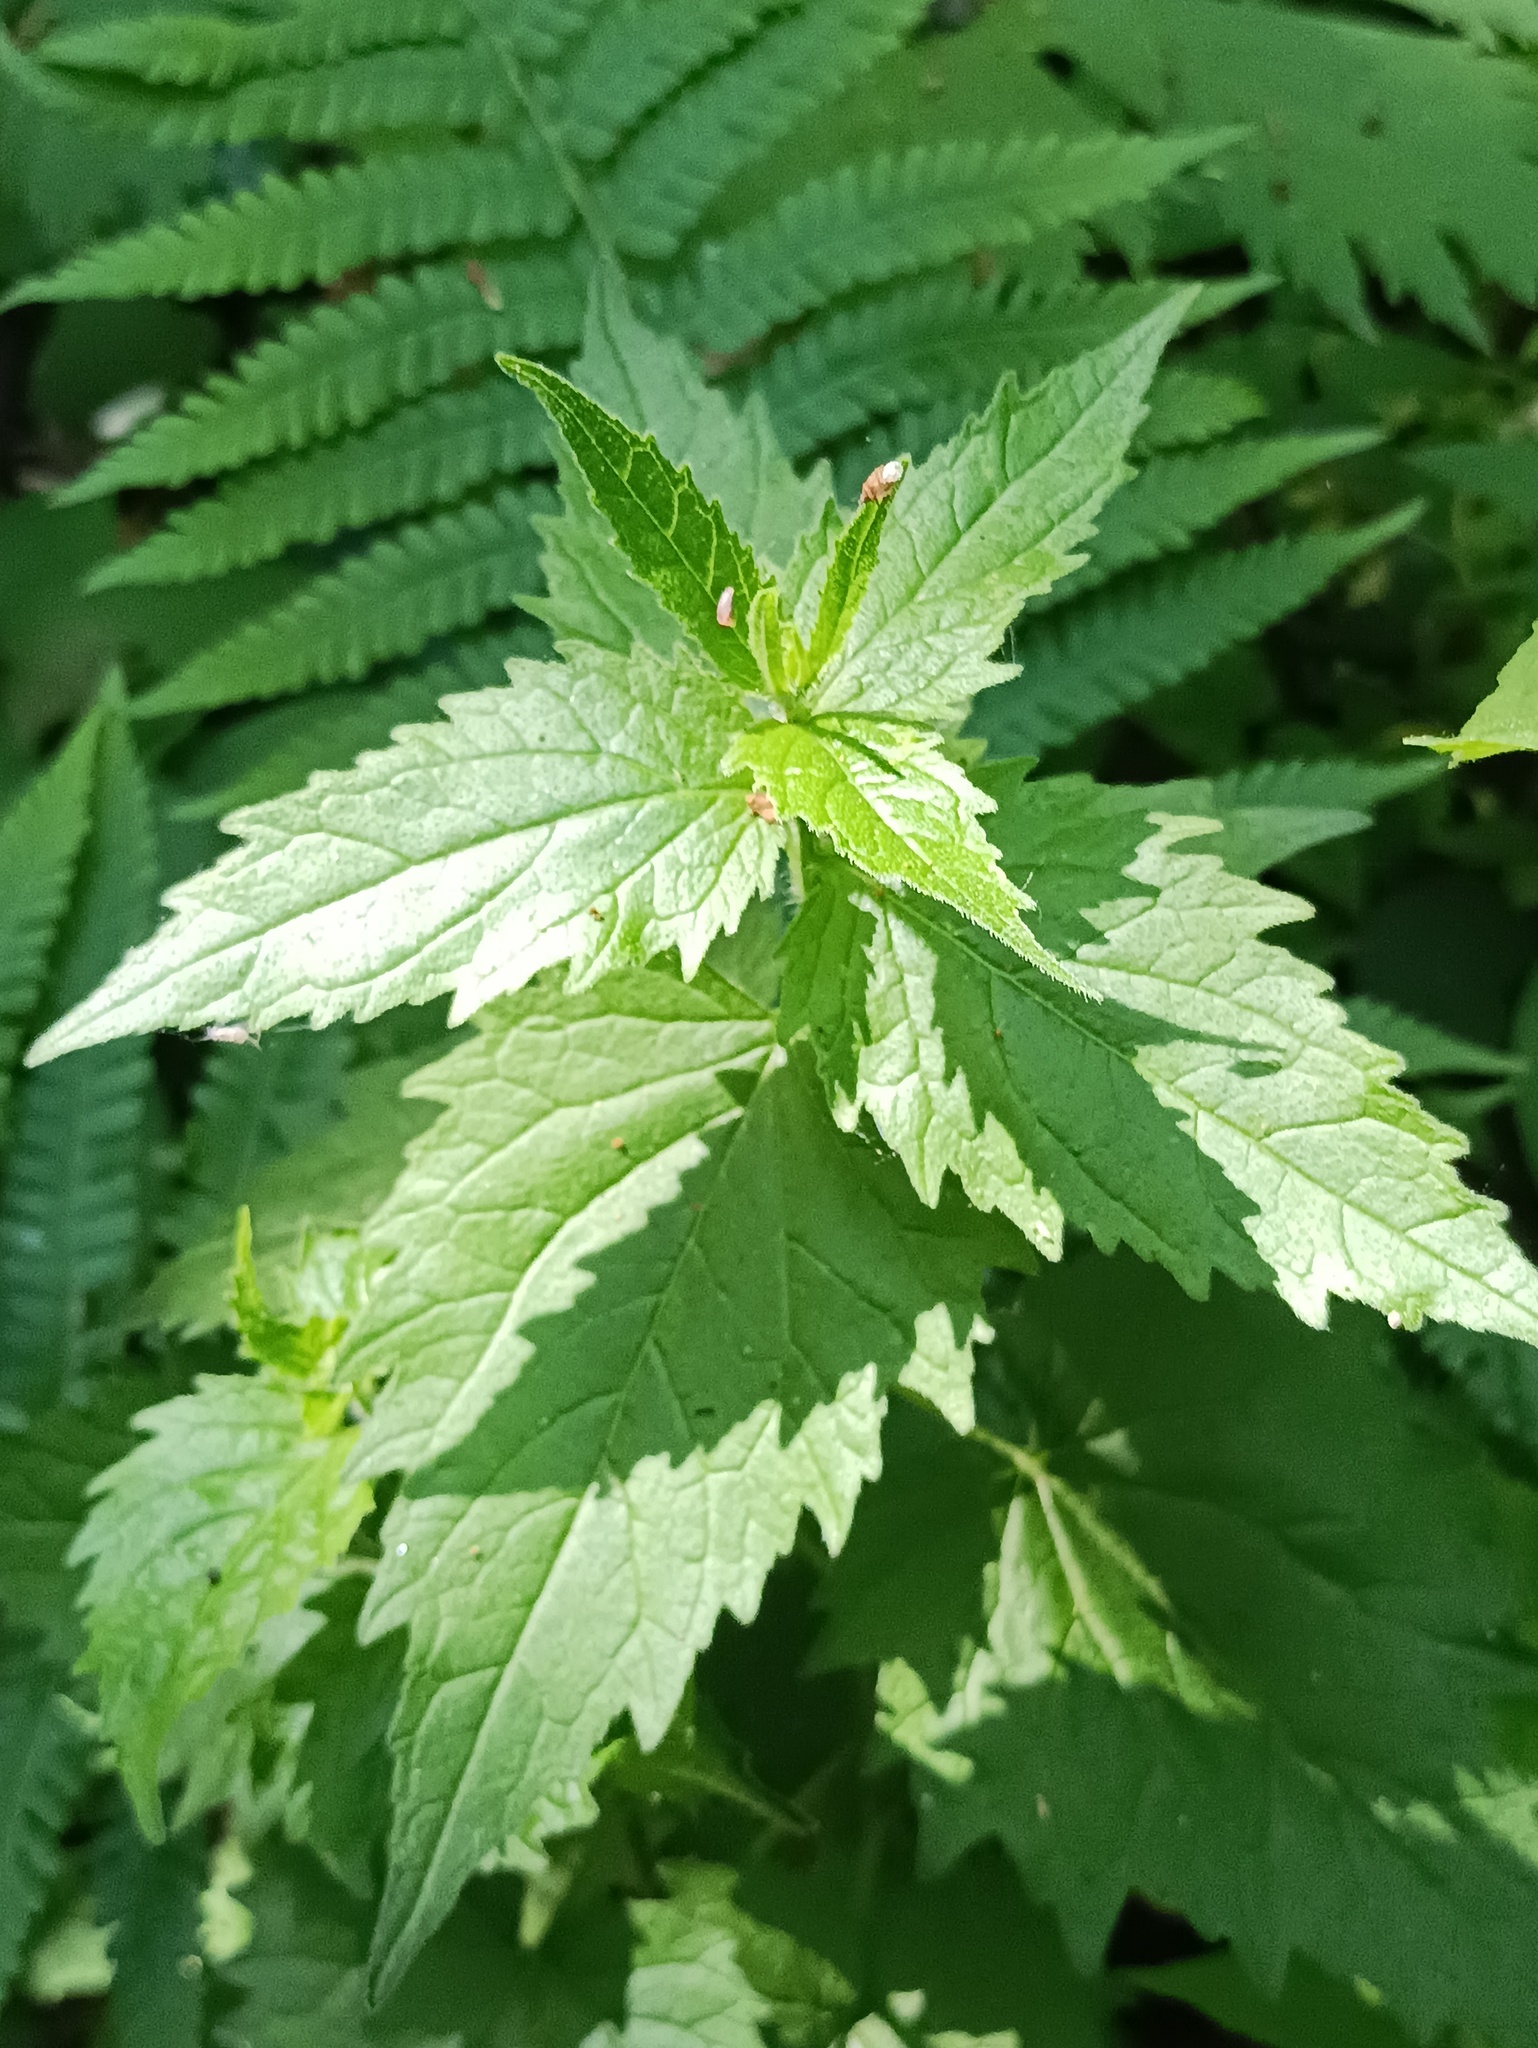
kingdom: Plantae
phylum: Tracheophyta
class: Magnoliopsida
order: Asterales
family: Campanulaceae
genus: Campanula
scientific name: Campanula trachelium
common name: Nettle-leaved bellflower
